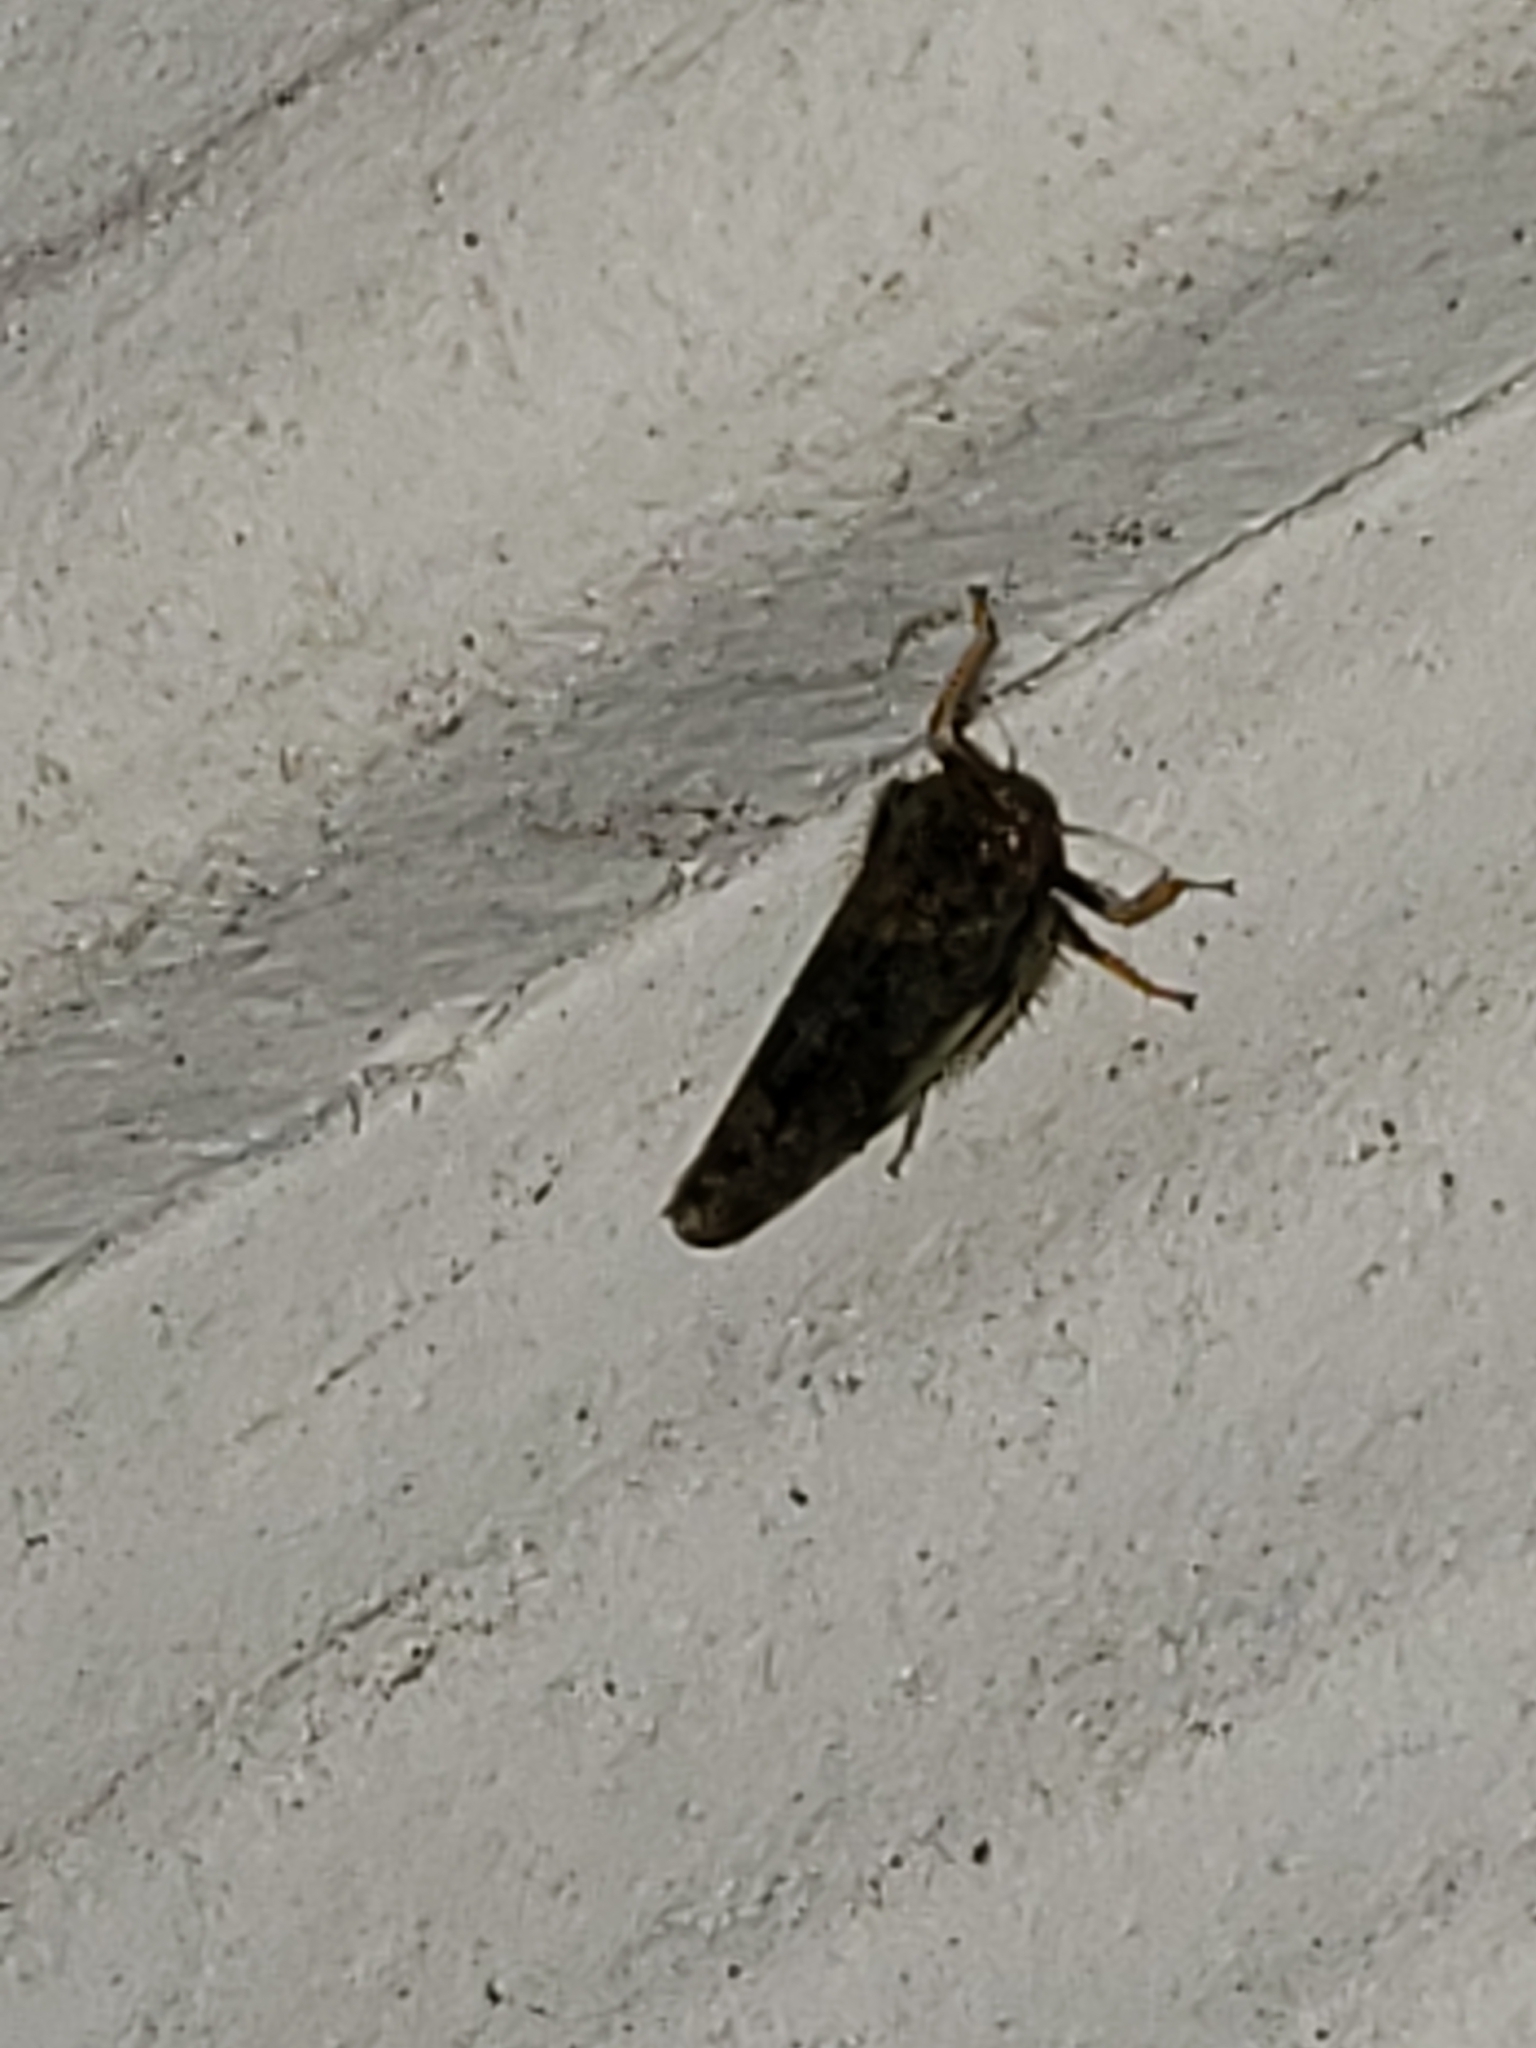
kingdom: Animalia
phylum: Arthropoda
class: Insecta
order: Hemiptera
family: Cicadellidae
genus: Orientus
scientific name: Orientus ishidae
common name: Japanese leafhopper
